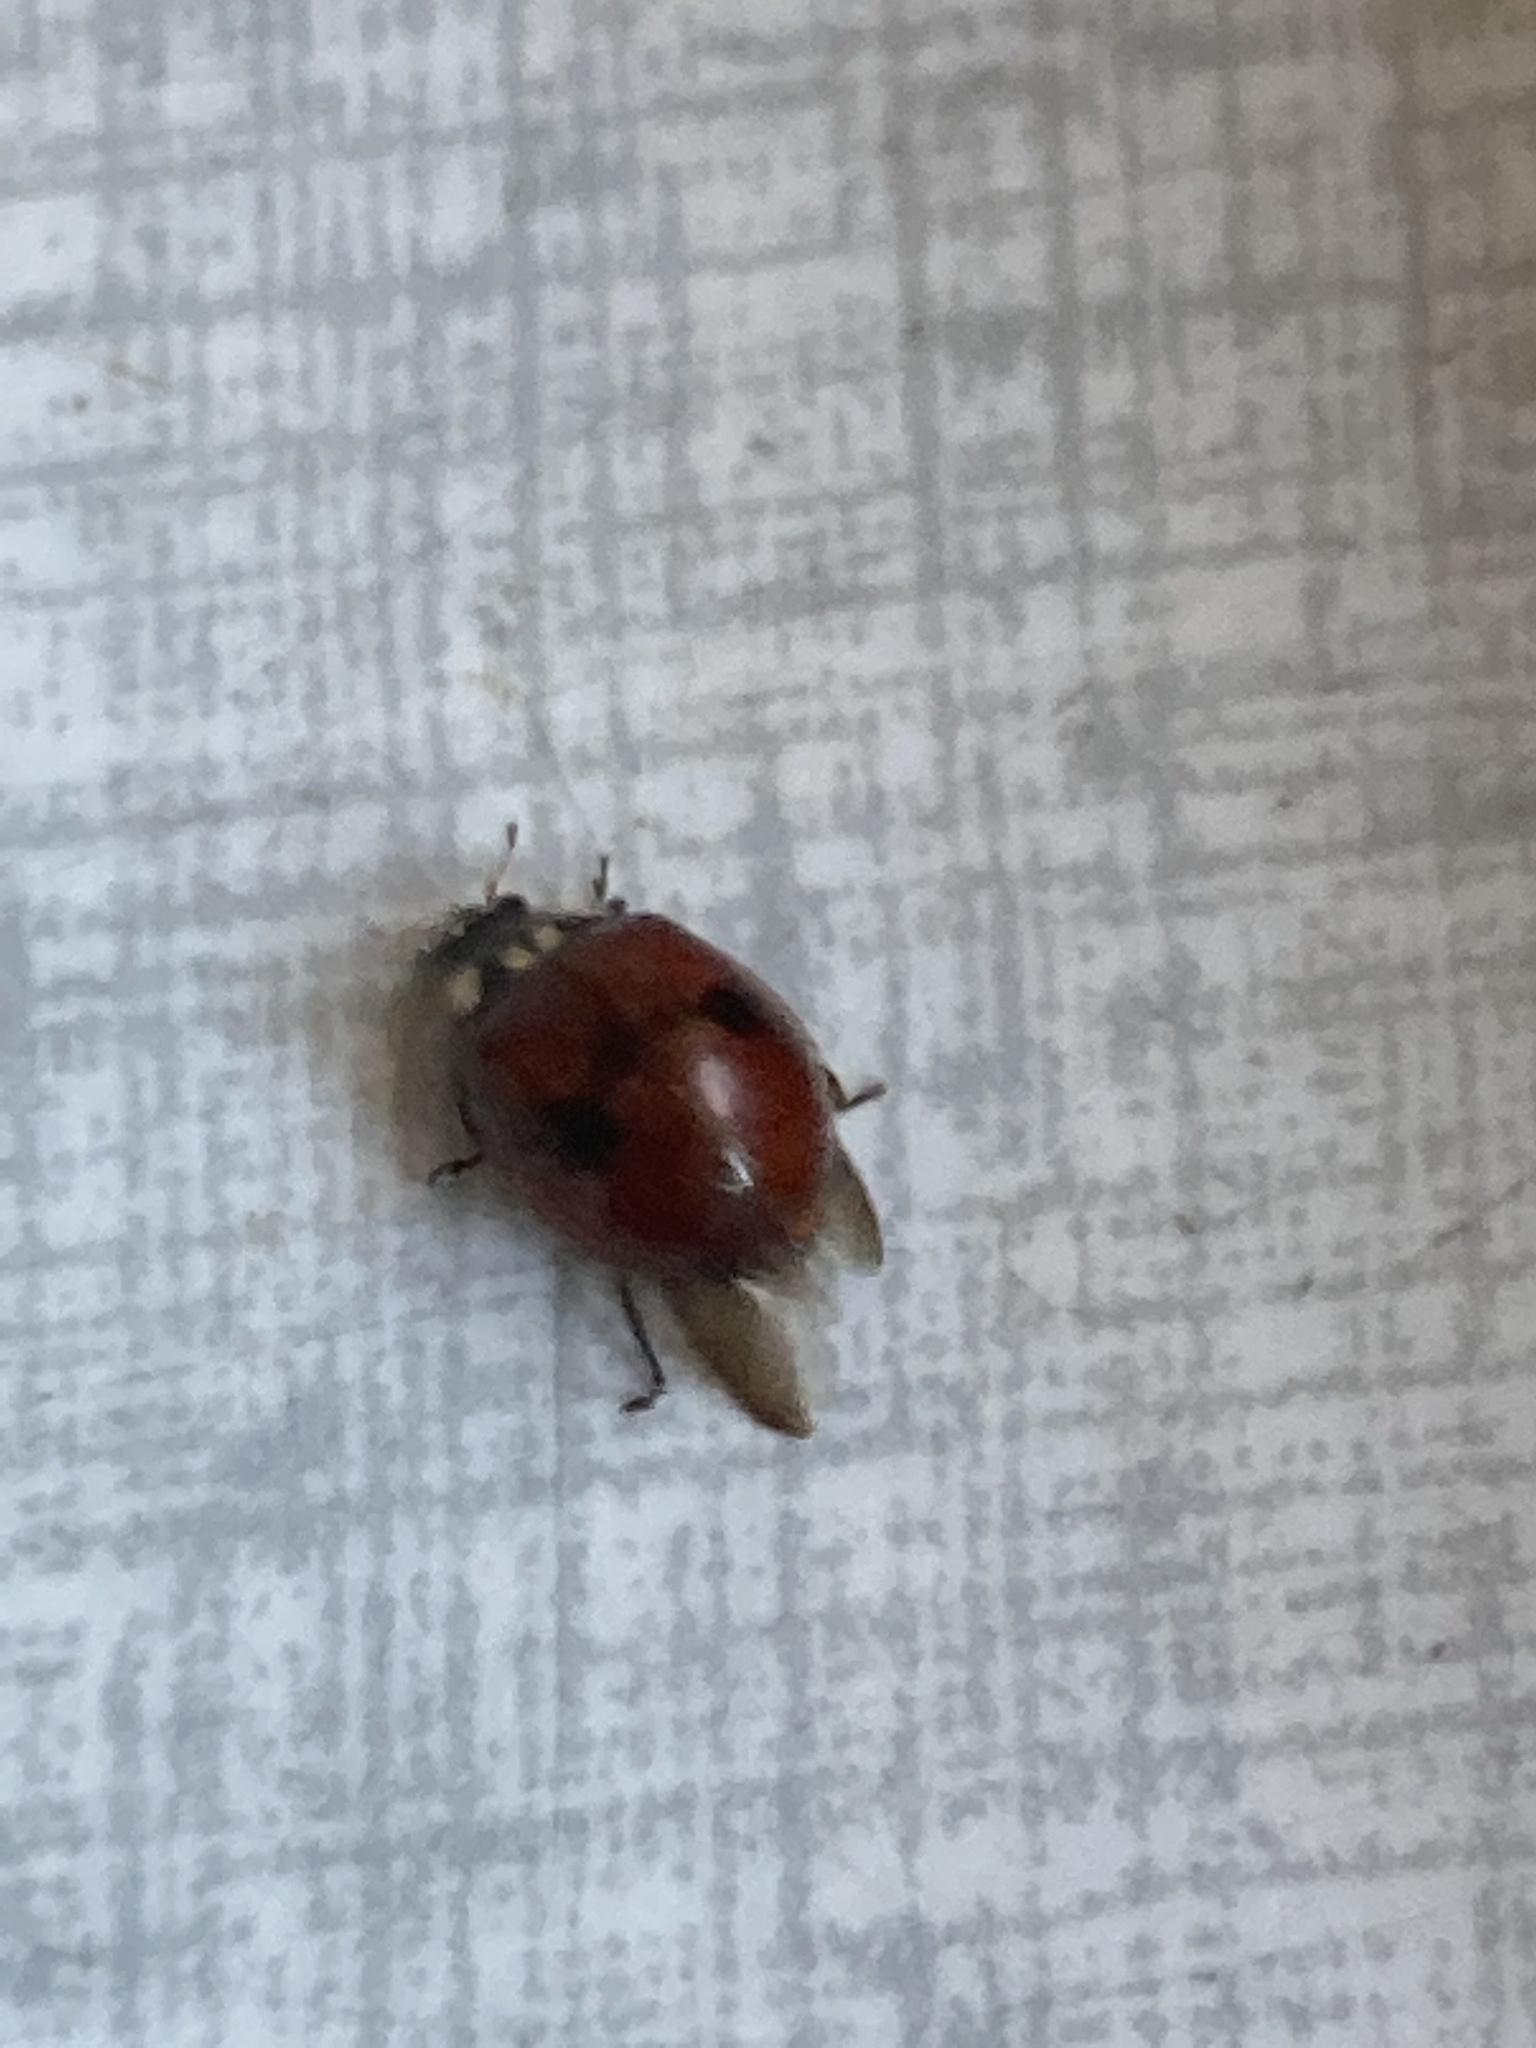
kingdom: Animalia
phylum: Arthropoda
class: Insecta
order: Coleoptera
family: Coccinellidae
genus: Adalia
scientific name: Adalia bipunctata
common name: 2-spot ladybird
